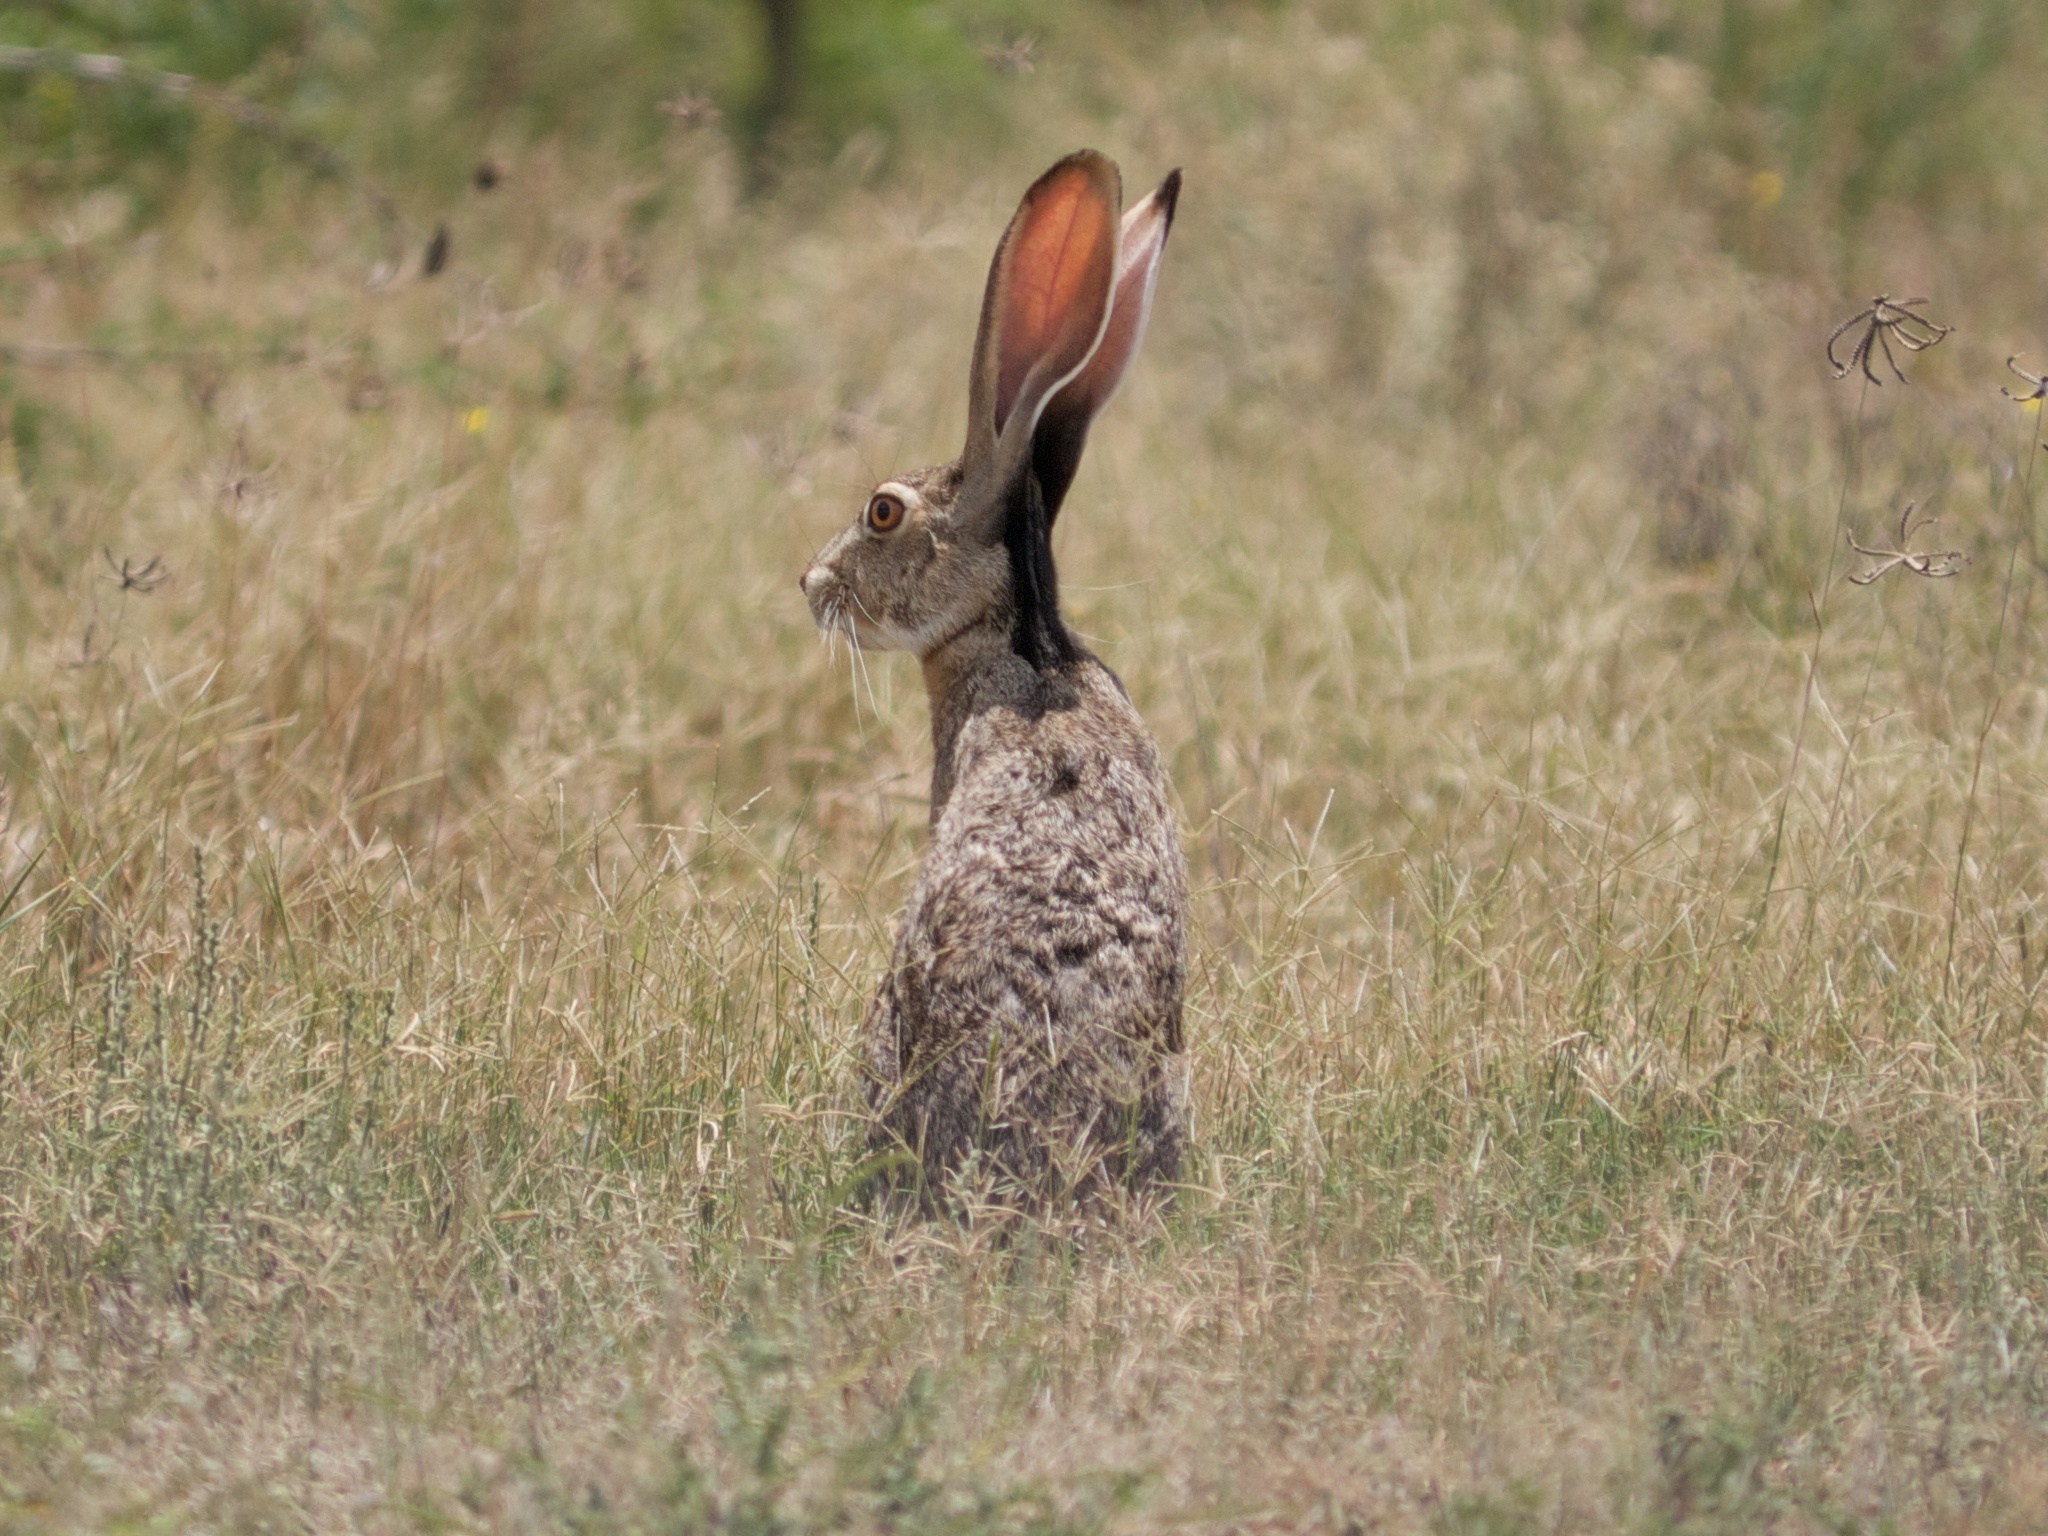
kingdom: Animalia
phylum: Chordata
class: Mammalia
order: Lagomorpha
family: Leporidae
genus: Lepus
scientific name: Lepus californicus
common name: Black-tailed jackrabbit
